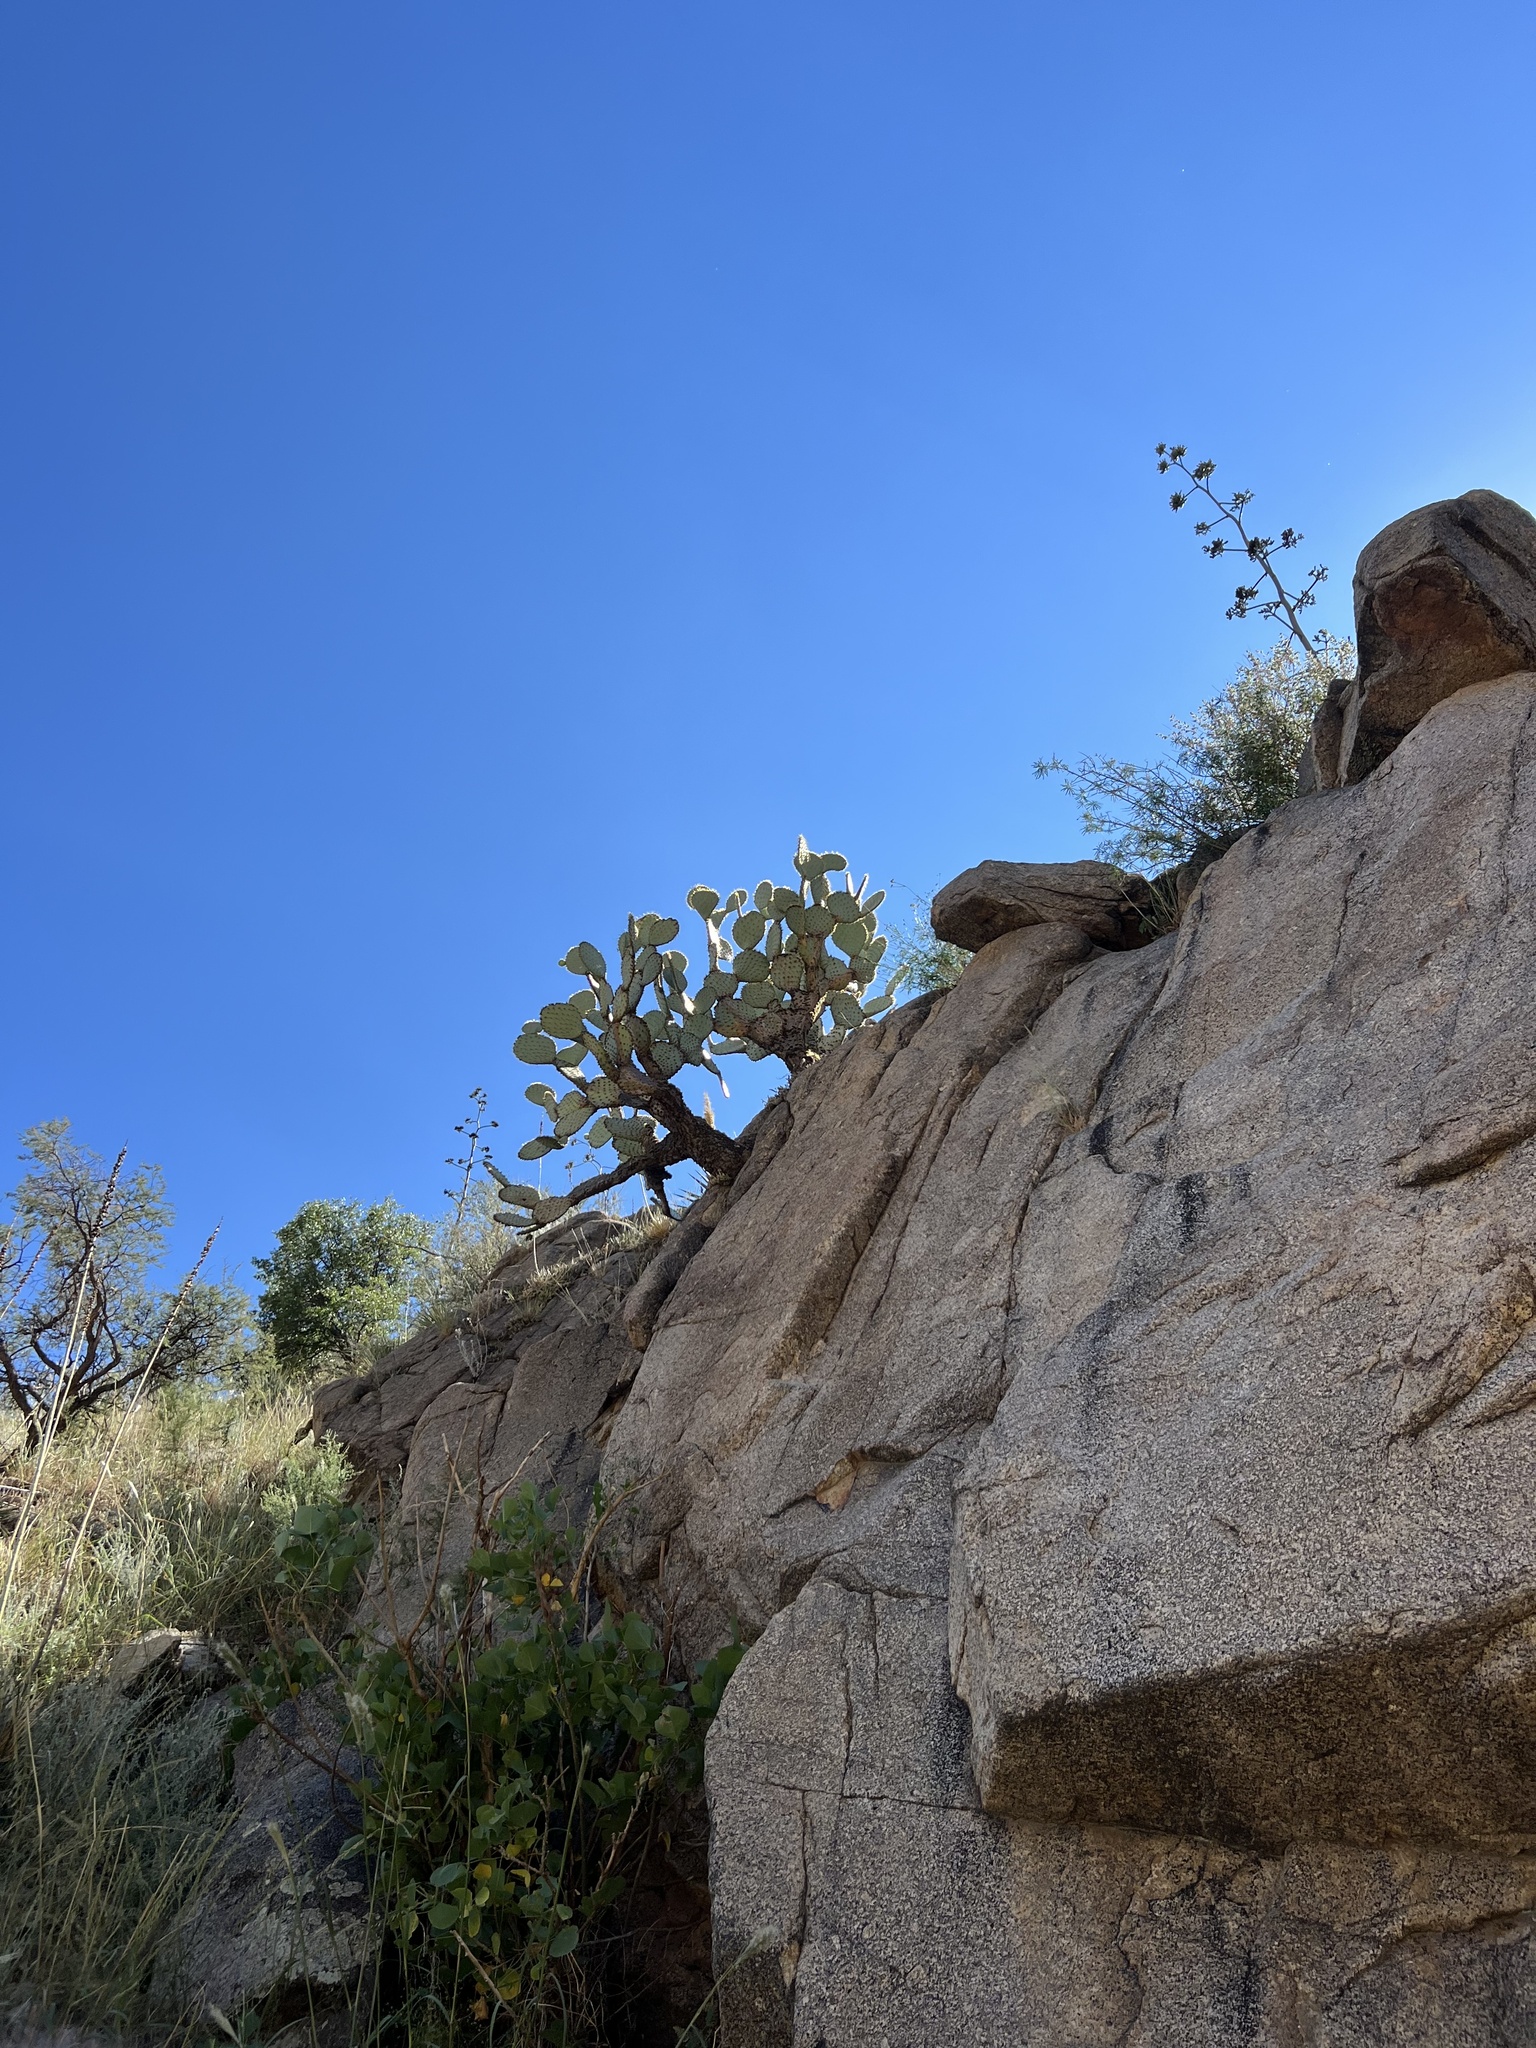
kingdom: Plantae
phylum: Tracheophyta
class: Magnoliopsida
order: Caryophyllales
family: Cactaceae
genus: Opuntia
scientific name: Opuntia chlorotica
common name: Dollar-joint prickly-pear
